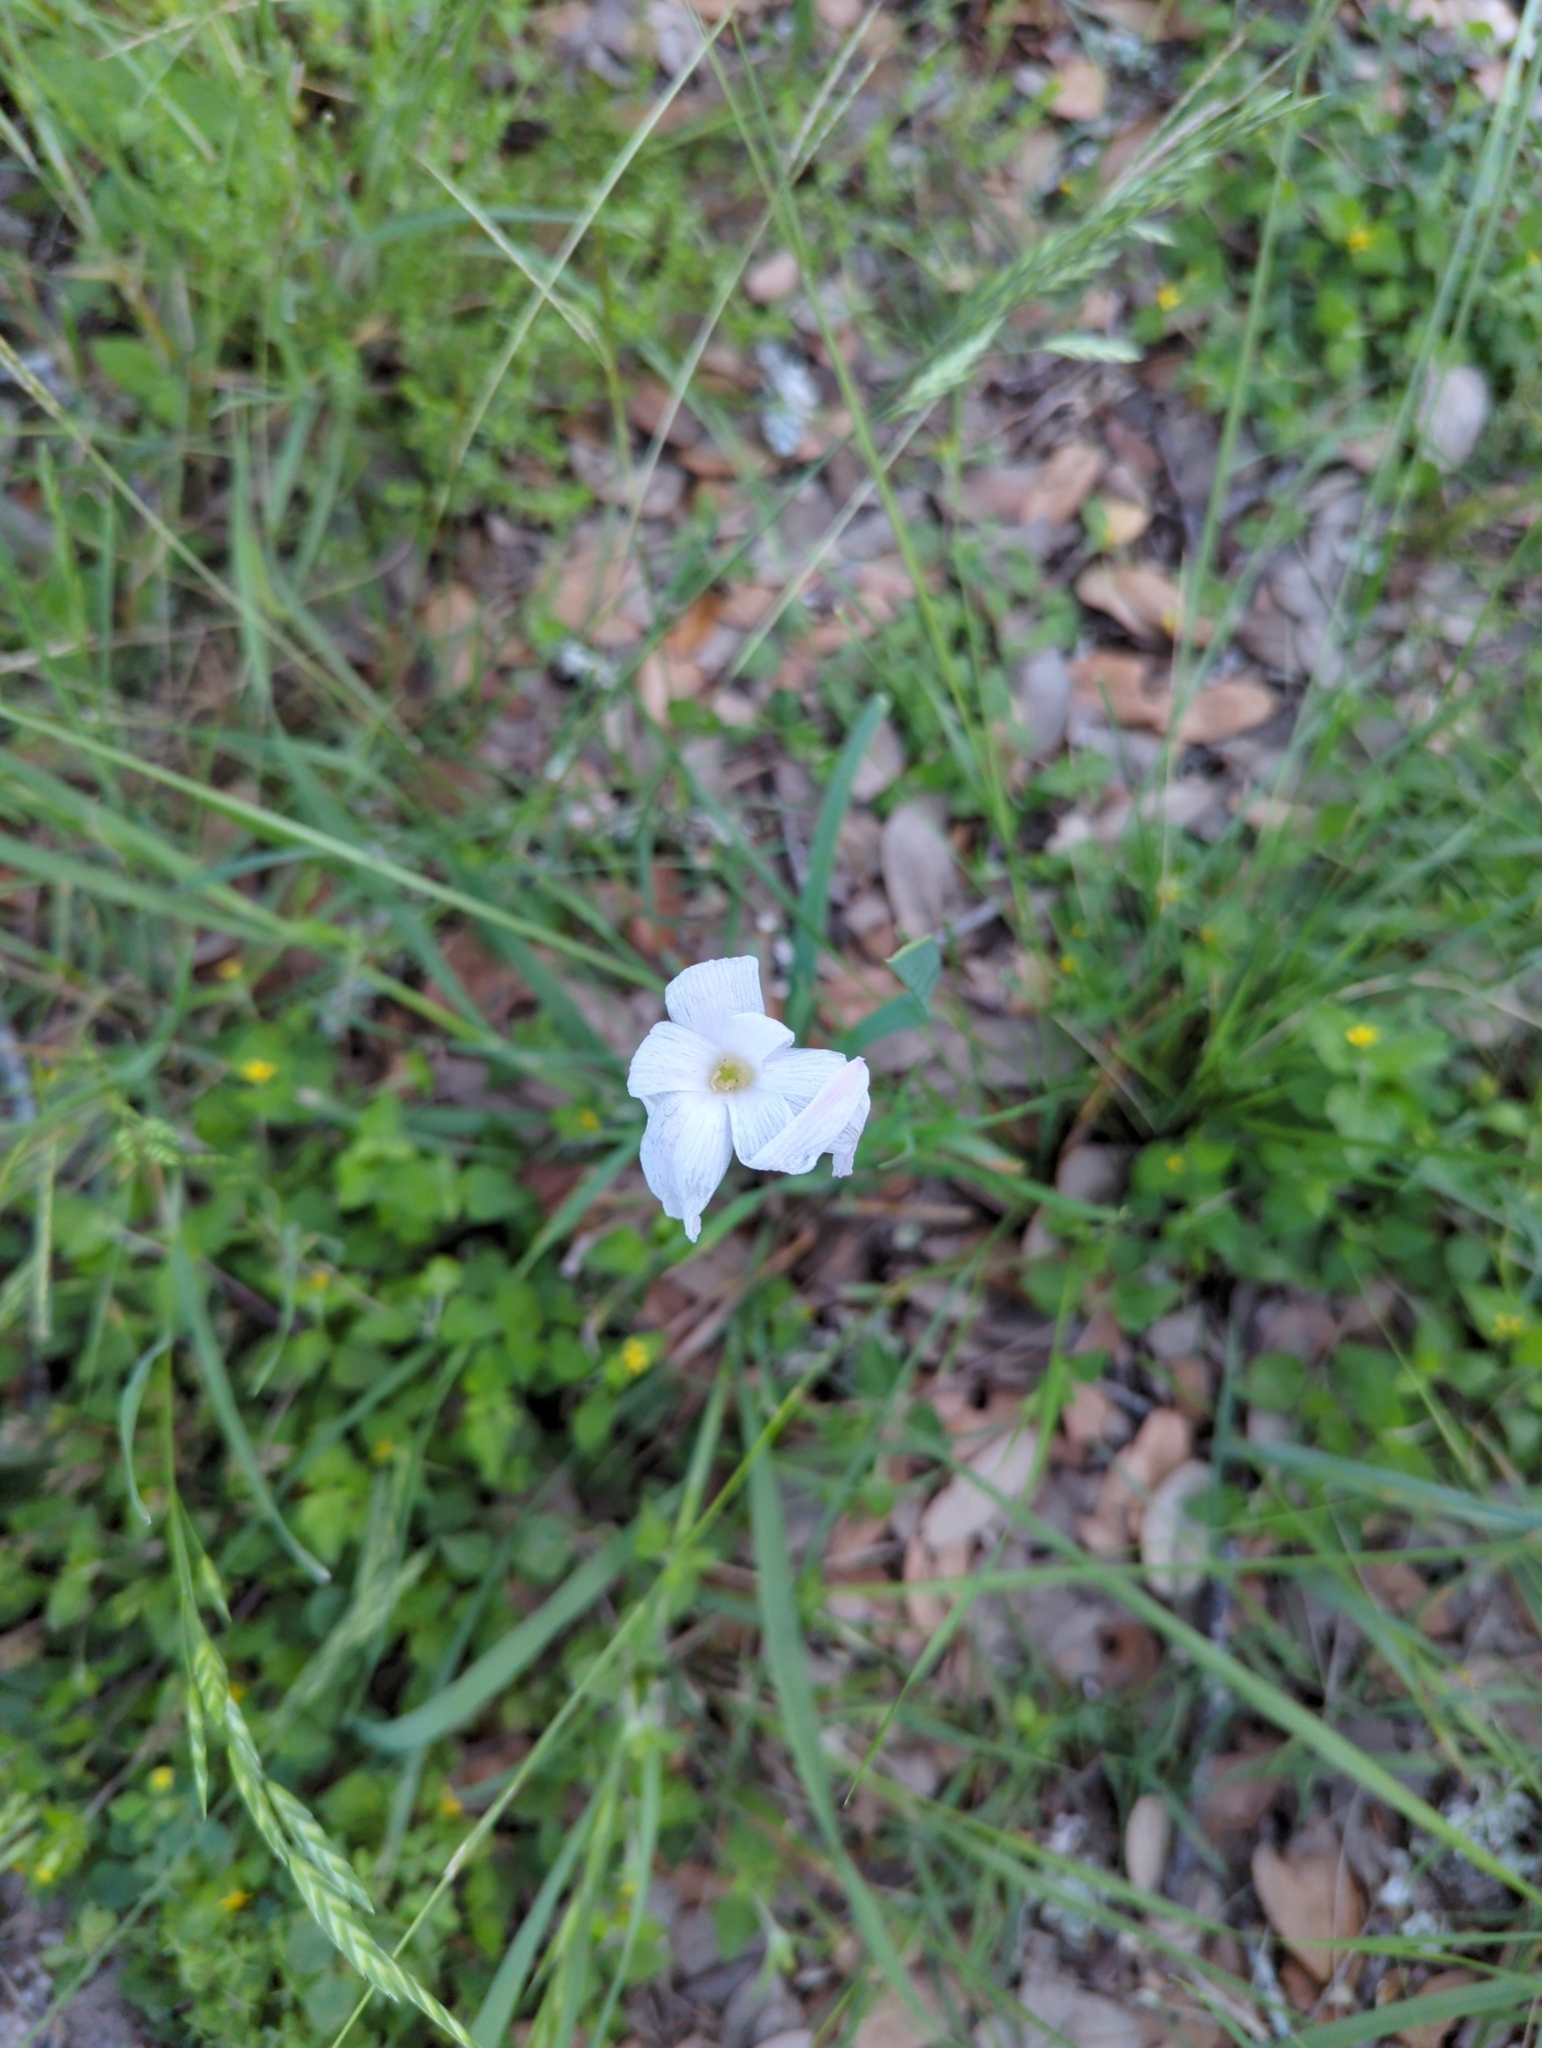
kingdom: Plantae
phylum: Tracheophyta
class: Liliopsida
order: Asparagales
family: Amaryllidaceae
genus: Zephyranthes
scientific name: Zephyranthes drummondii
